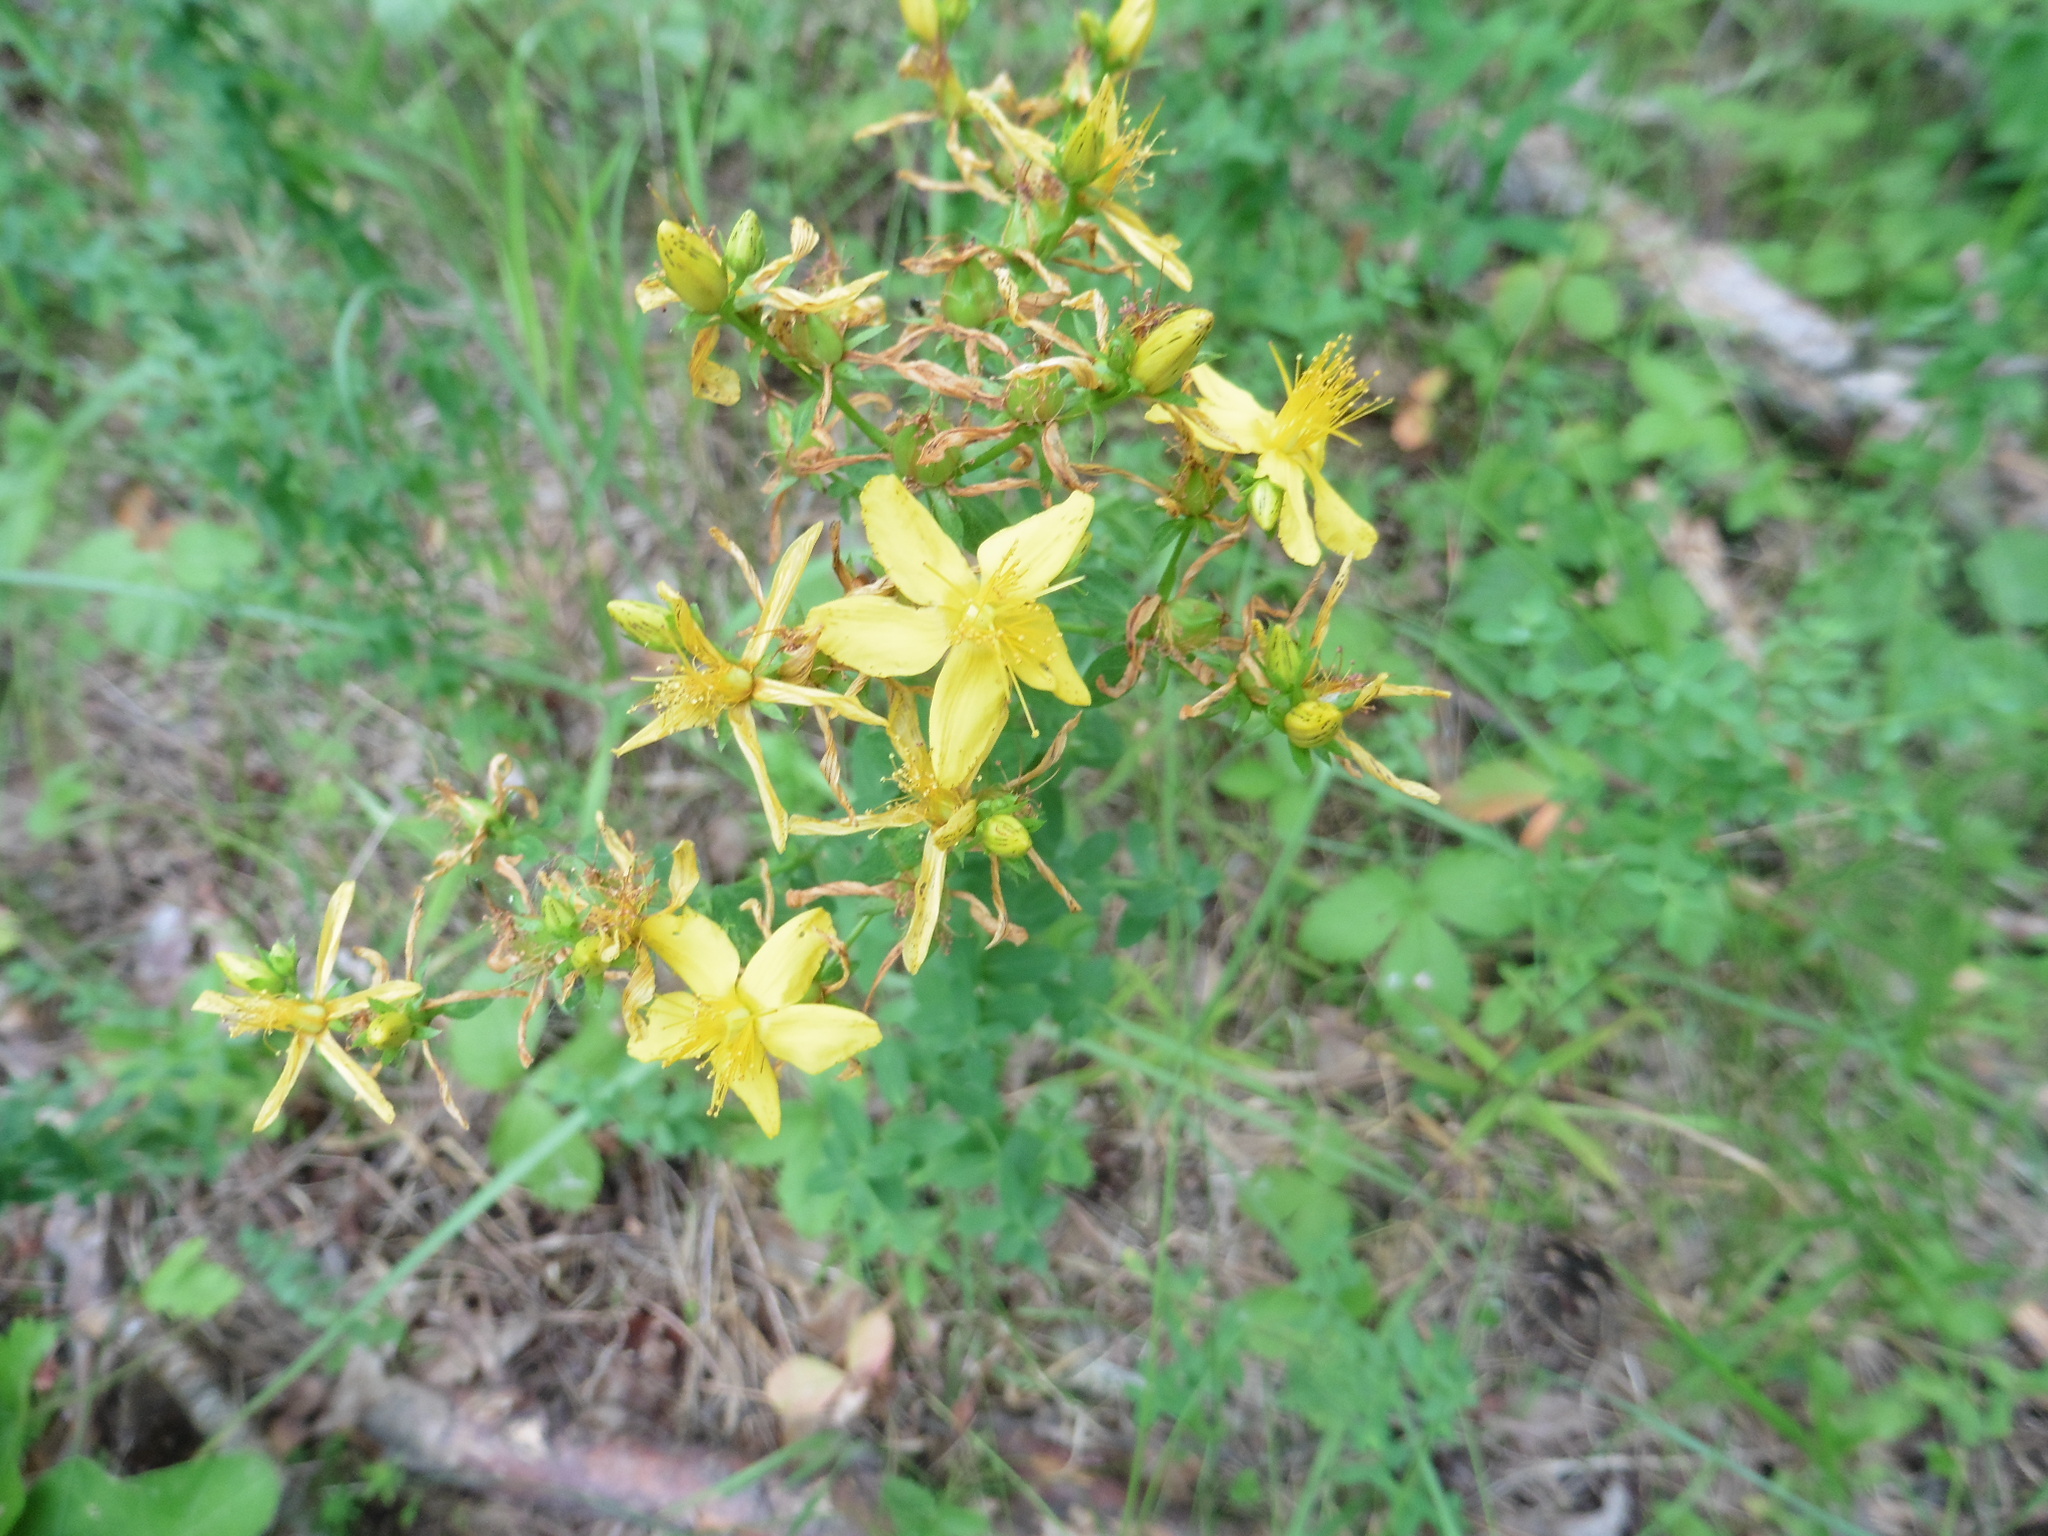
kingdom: Plantae
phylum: Tracheophyta
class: Magnoliopsida
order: Malpighiales
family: Hypericaceae
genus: Hypericum
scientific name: Hypericum perforatum
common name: Common st. johnswort
